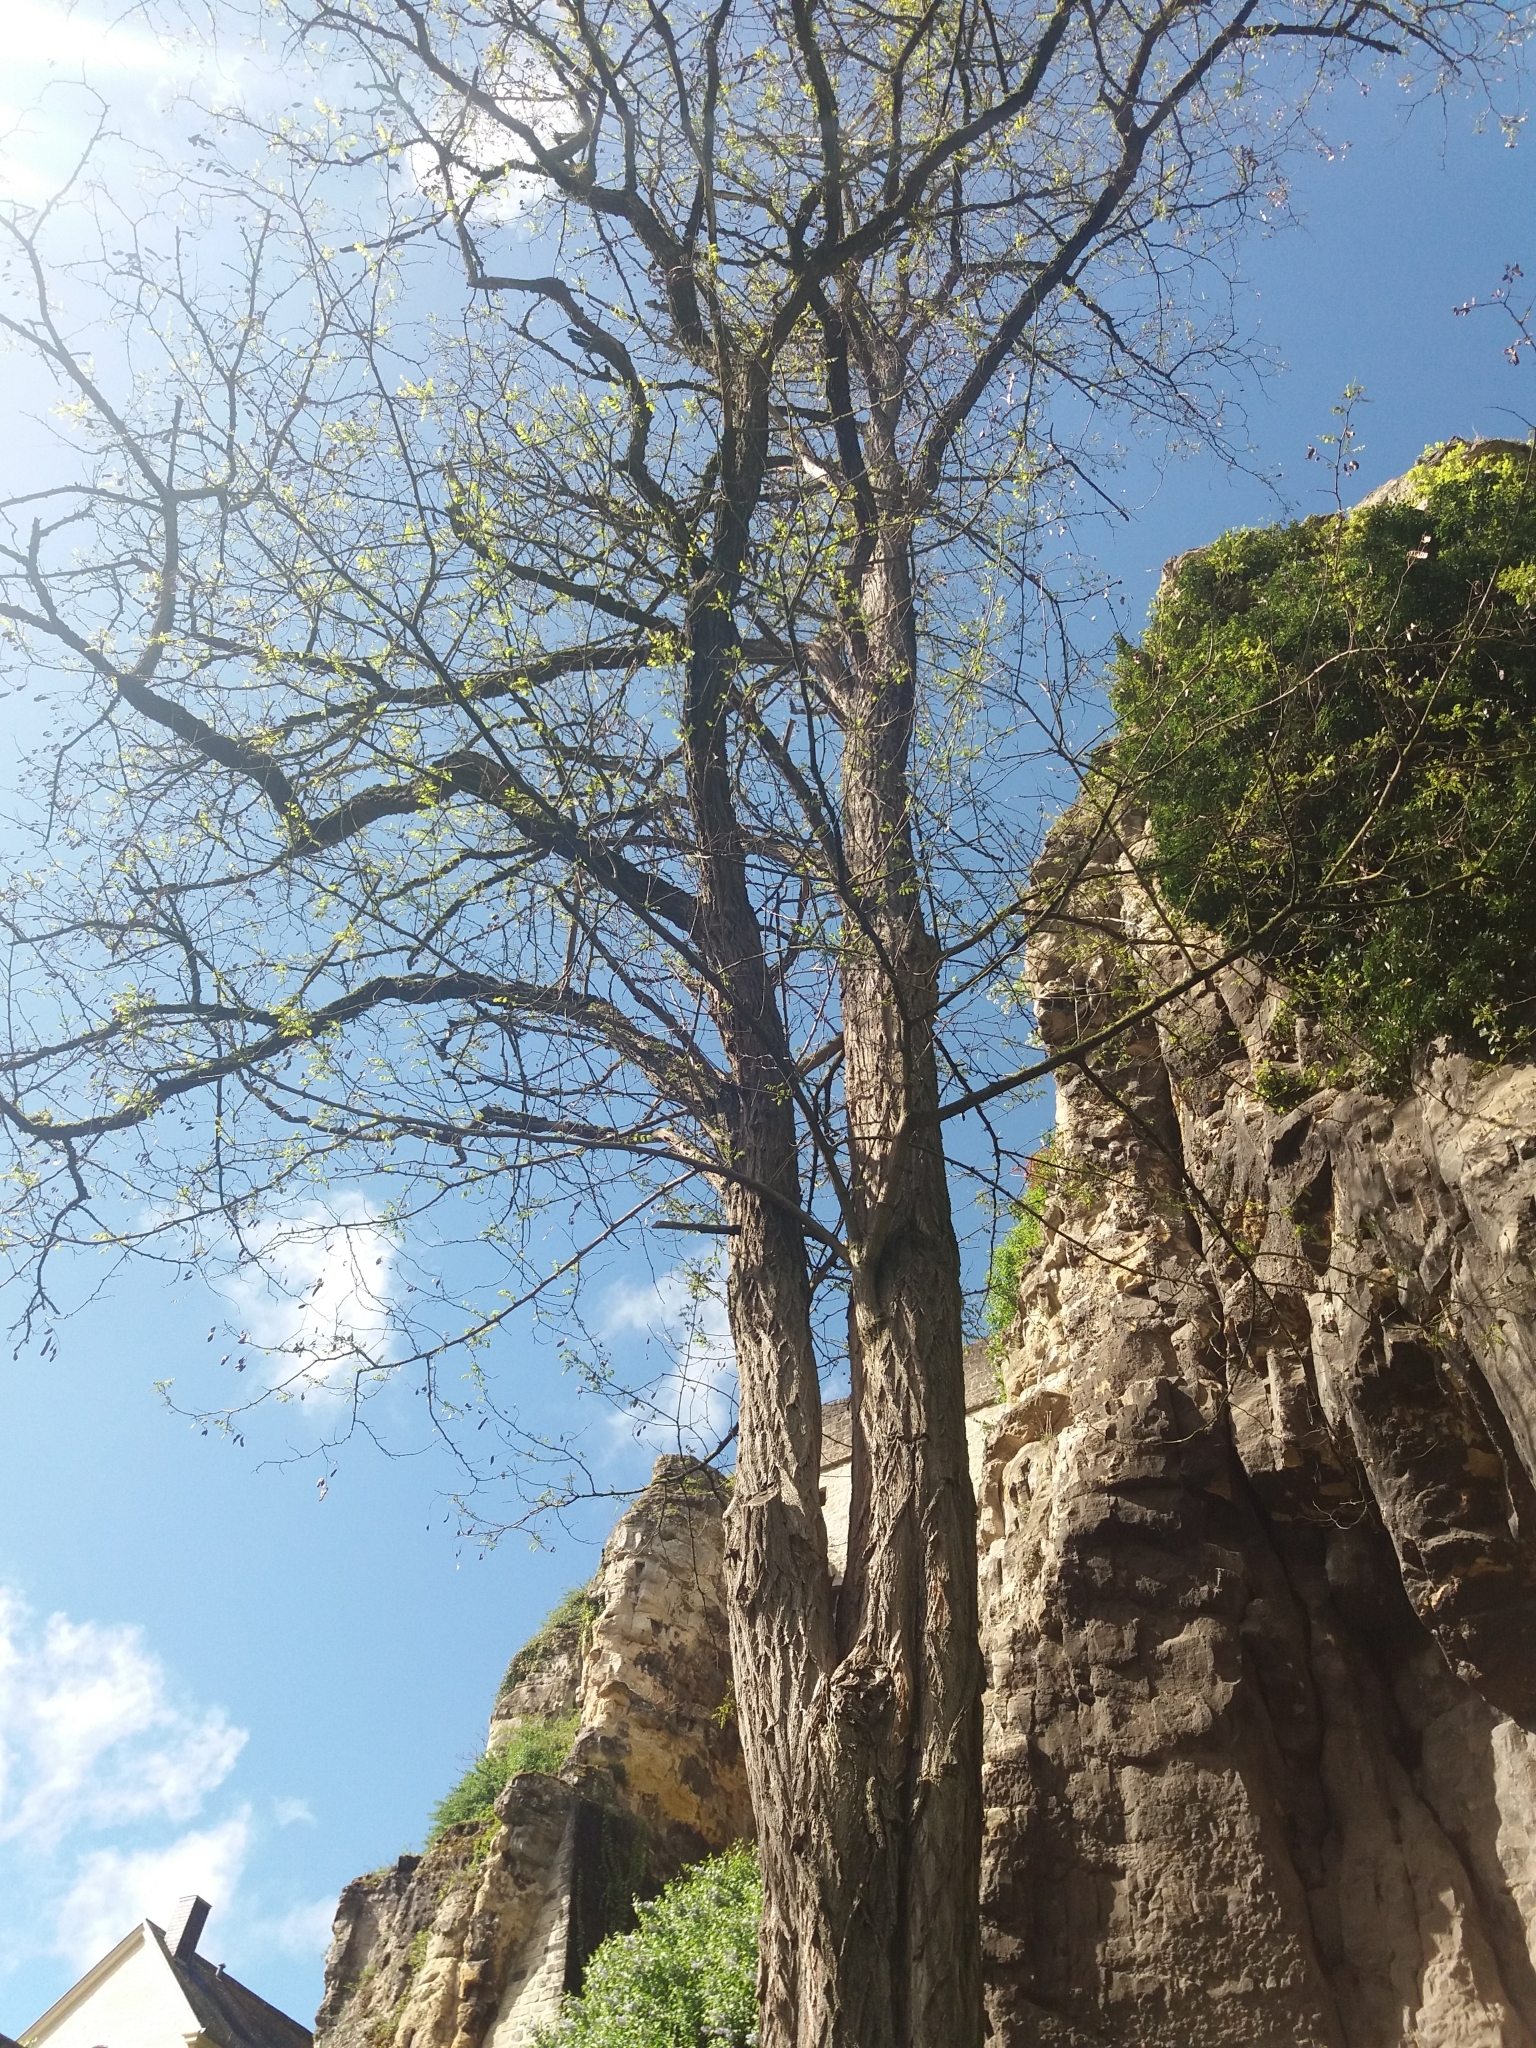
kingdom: Plantae
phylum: Tracheophyta
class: Magnoliopsida
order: Fabales
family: Fabaceae
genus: Robinia
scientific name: Robinia pseudoacacia
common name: Black locust
